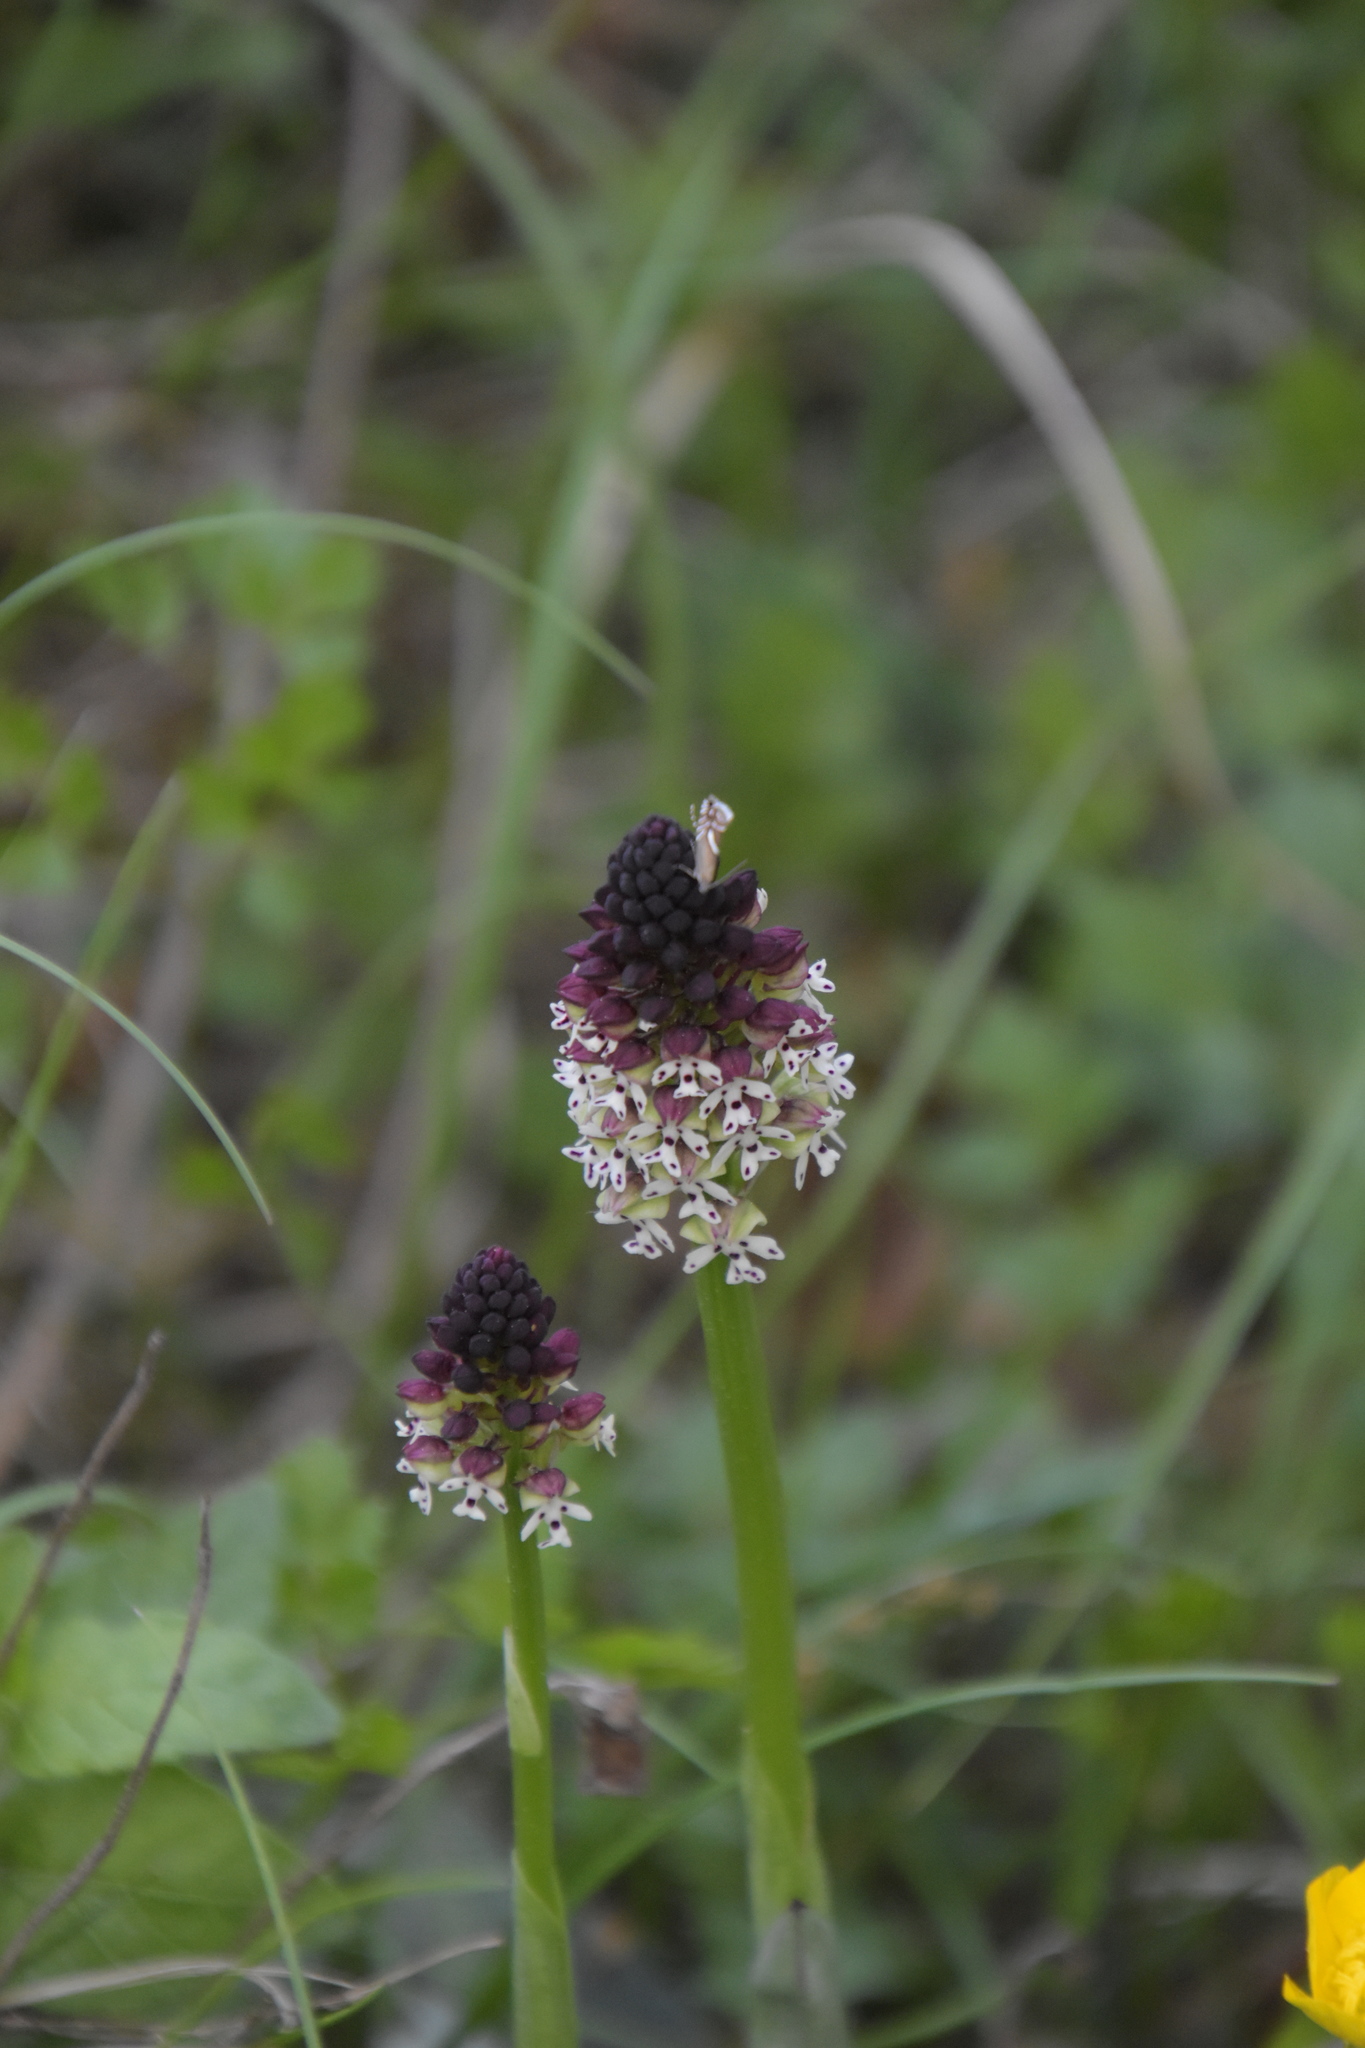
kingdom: Plantae
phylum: Tracheophyta
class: Liliopsida
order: Asparagales
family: Orchidaceae
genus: Neotinea
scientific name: Neotinea ustulata
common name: Burnt orchid
